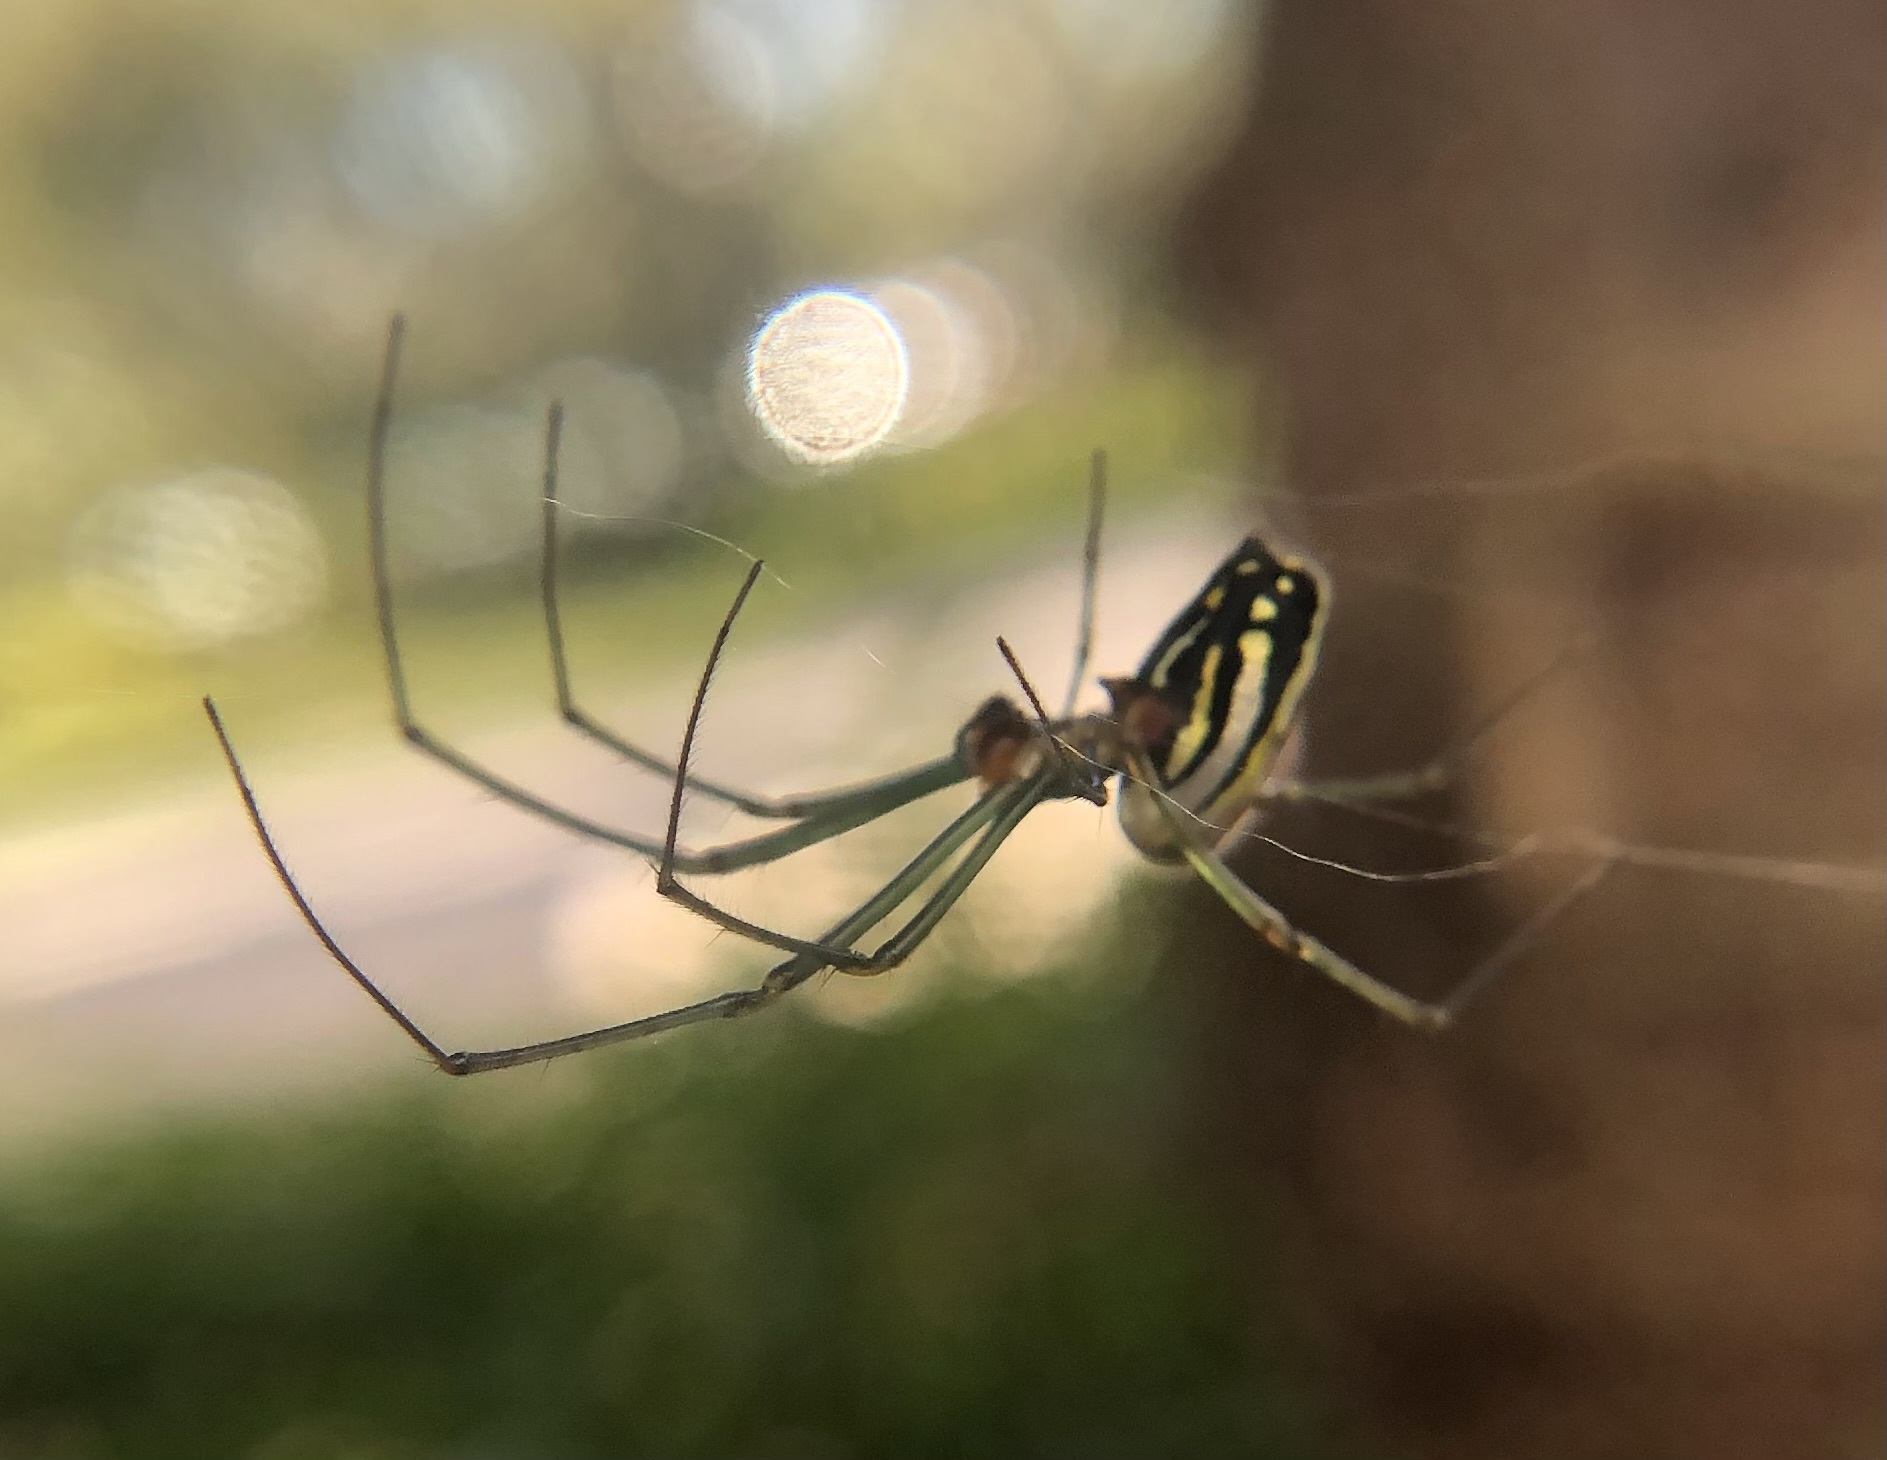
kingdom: Animalia
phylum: Arthropoda
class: Arachnida
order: Araneae
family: Tetragnathidae
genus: Leucauge
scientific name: Leucauge argyra
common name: Longjawed orb weavers
